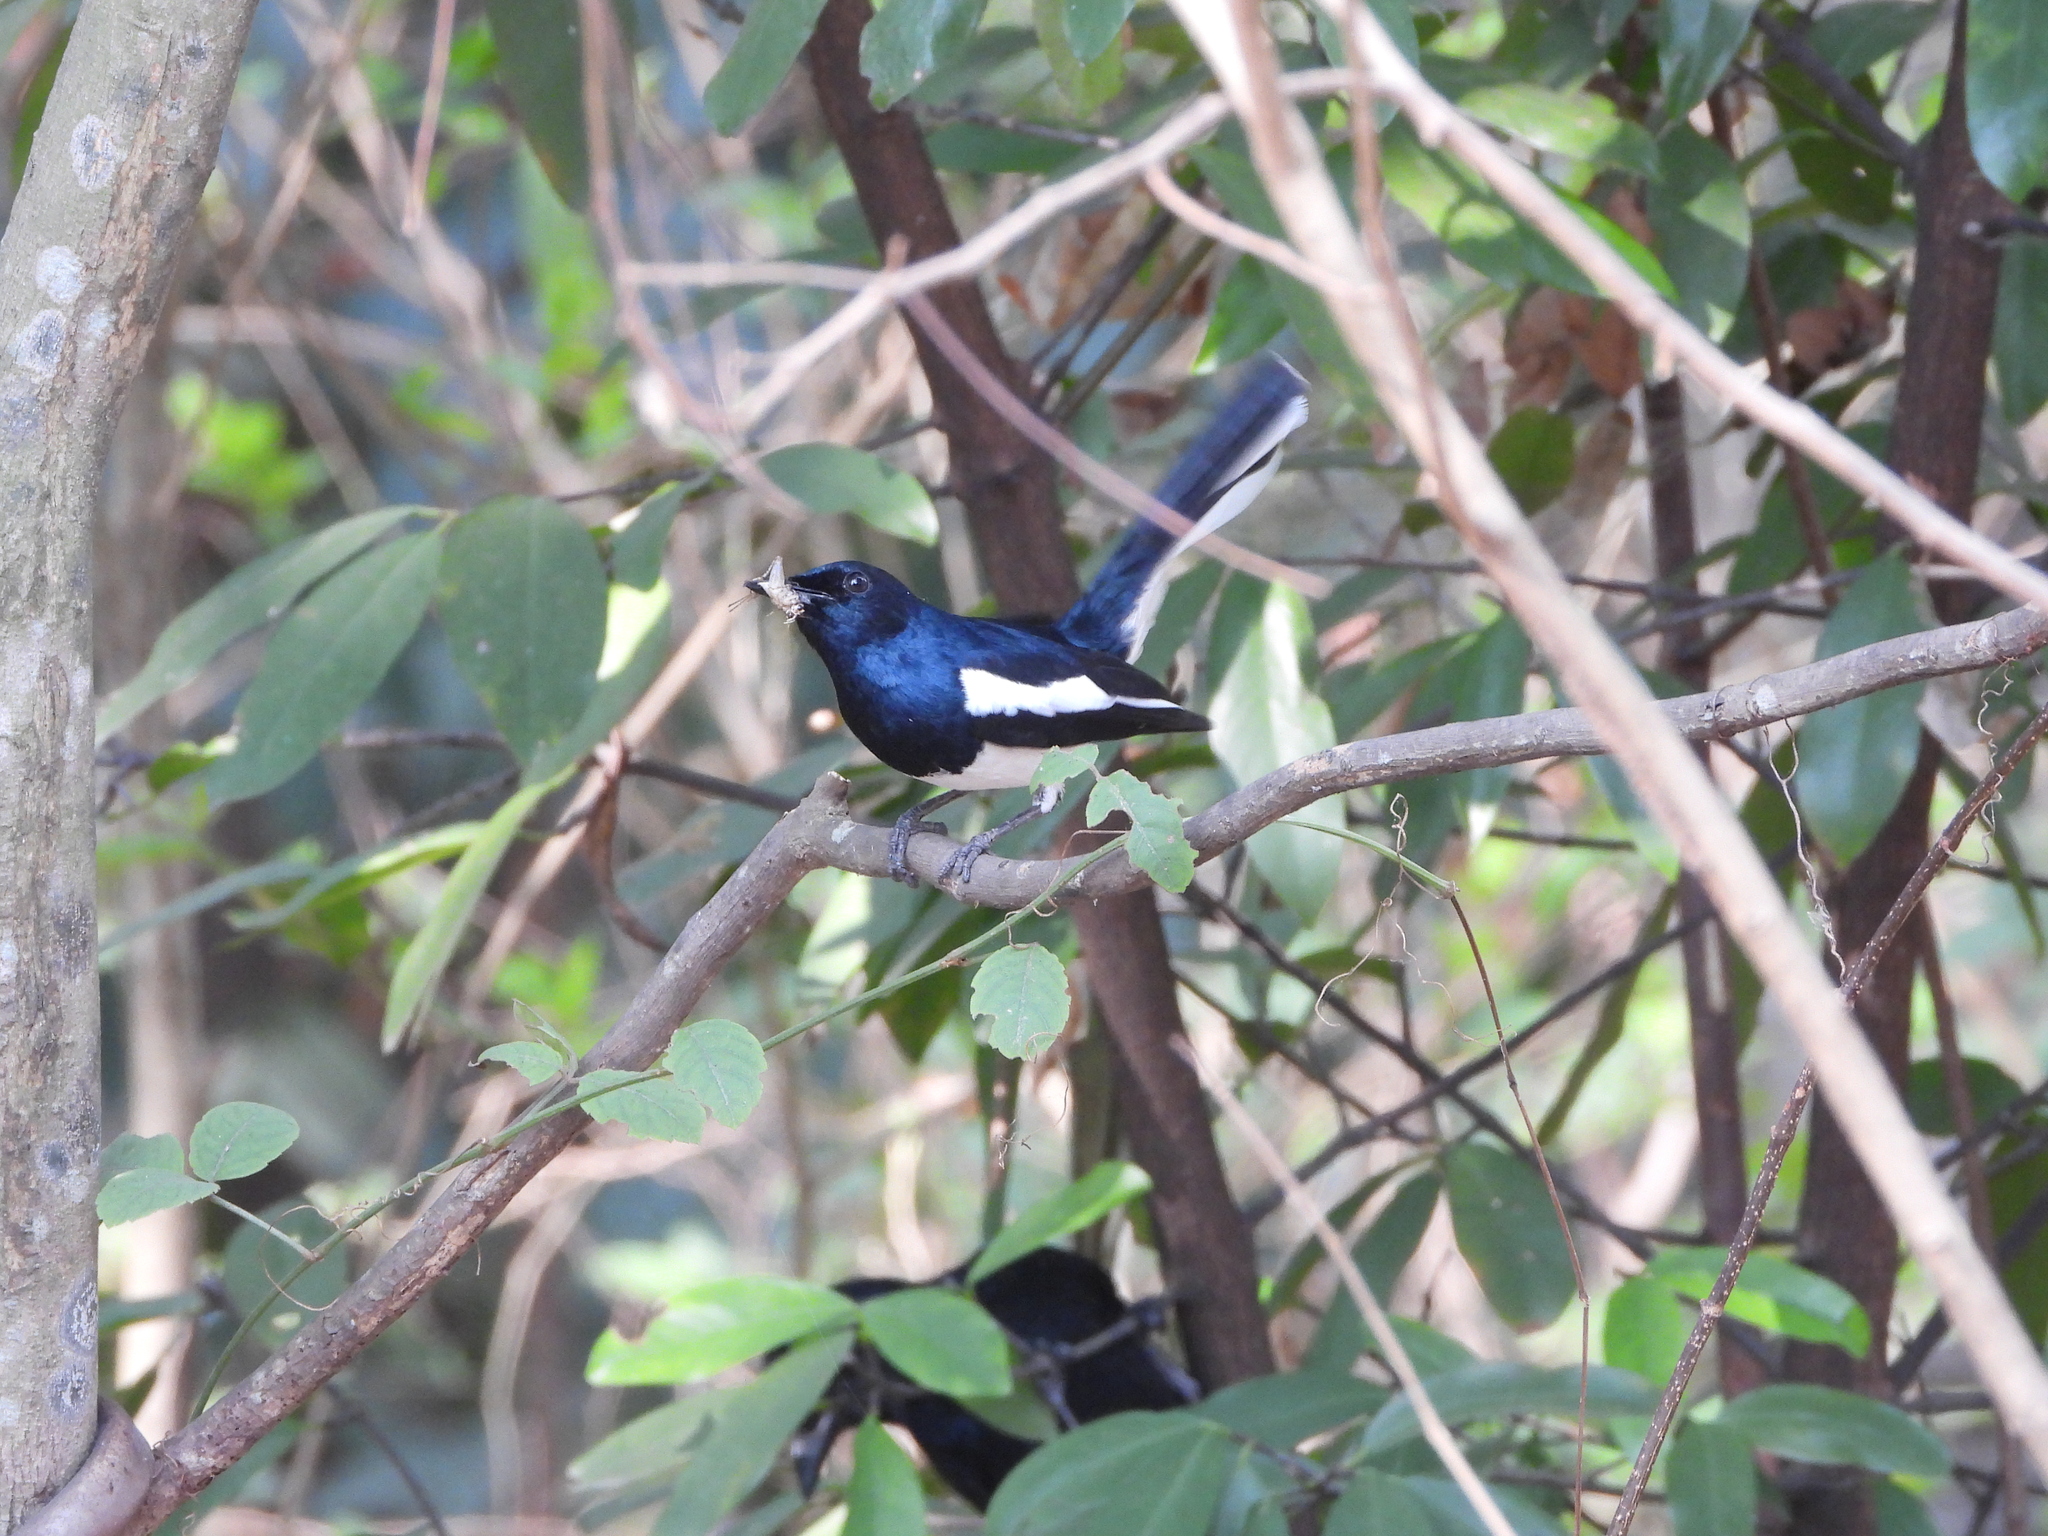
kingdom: Animalia
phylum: Chordata
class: Aves
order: Passeriformes
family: Muscicapidae
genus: Copsychus
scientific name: Copsychus saularis
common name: Oriental magpie-robin
